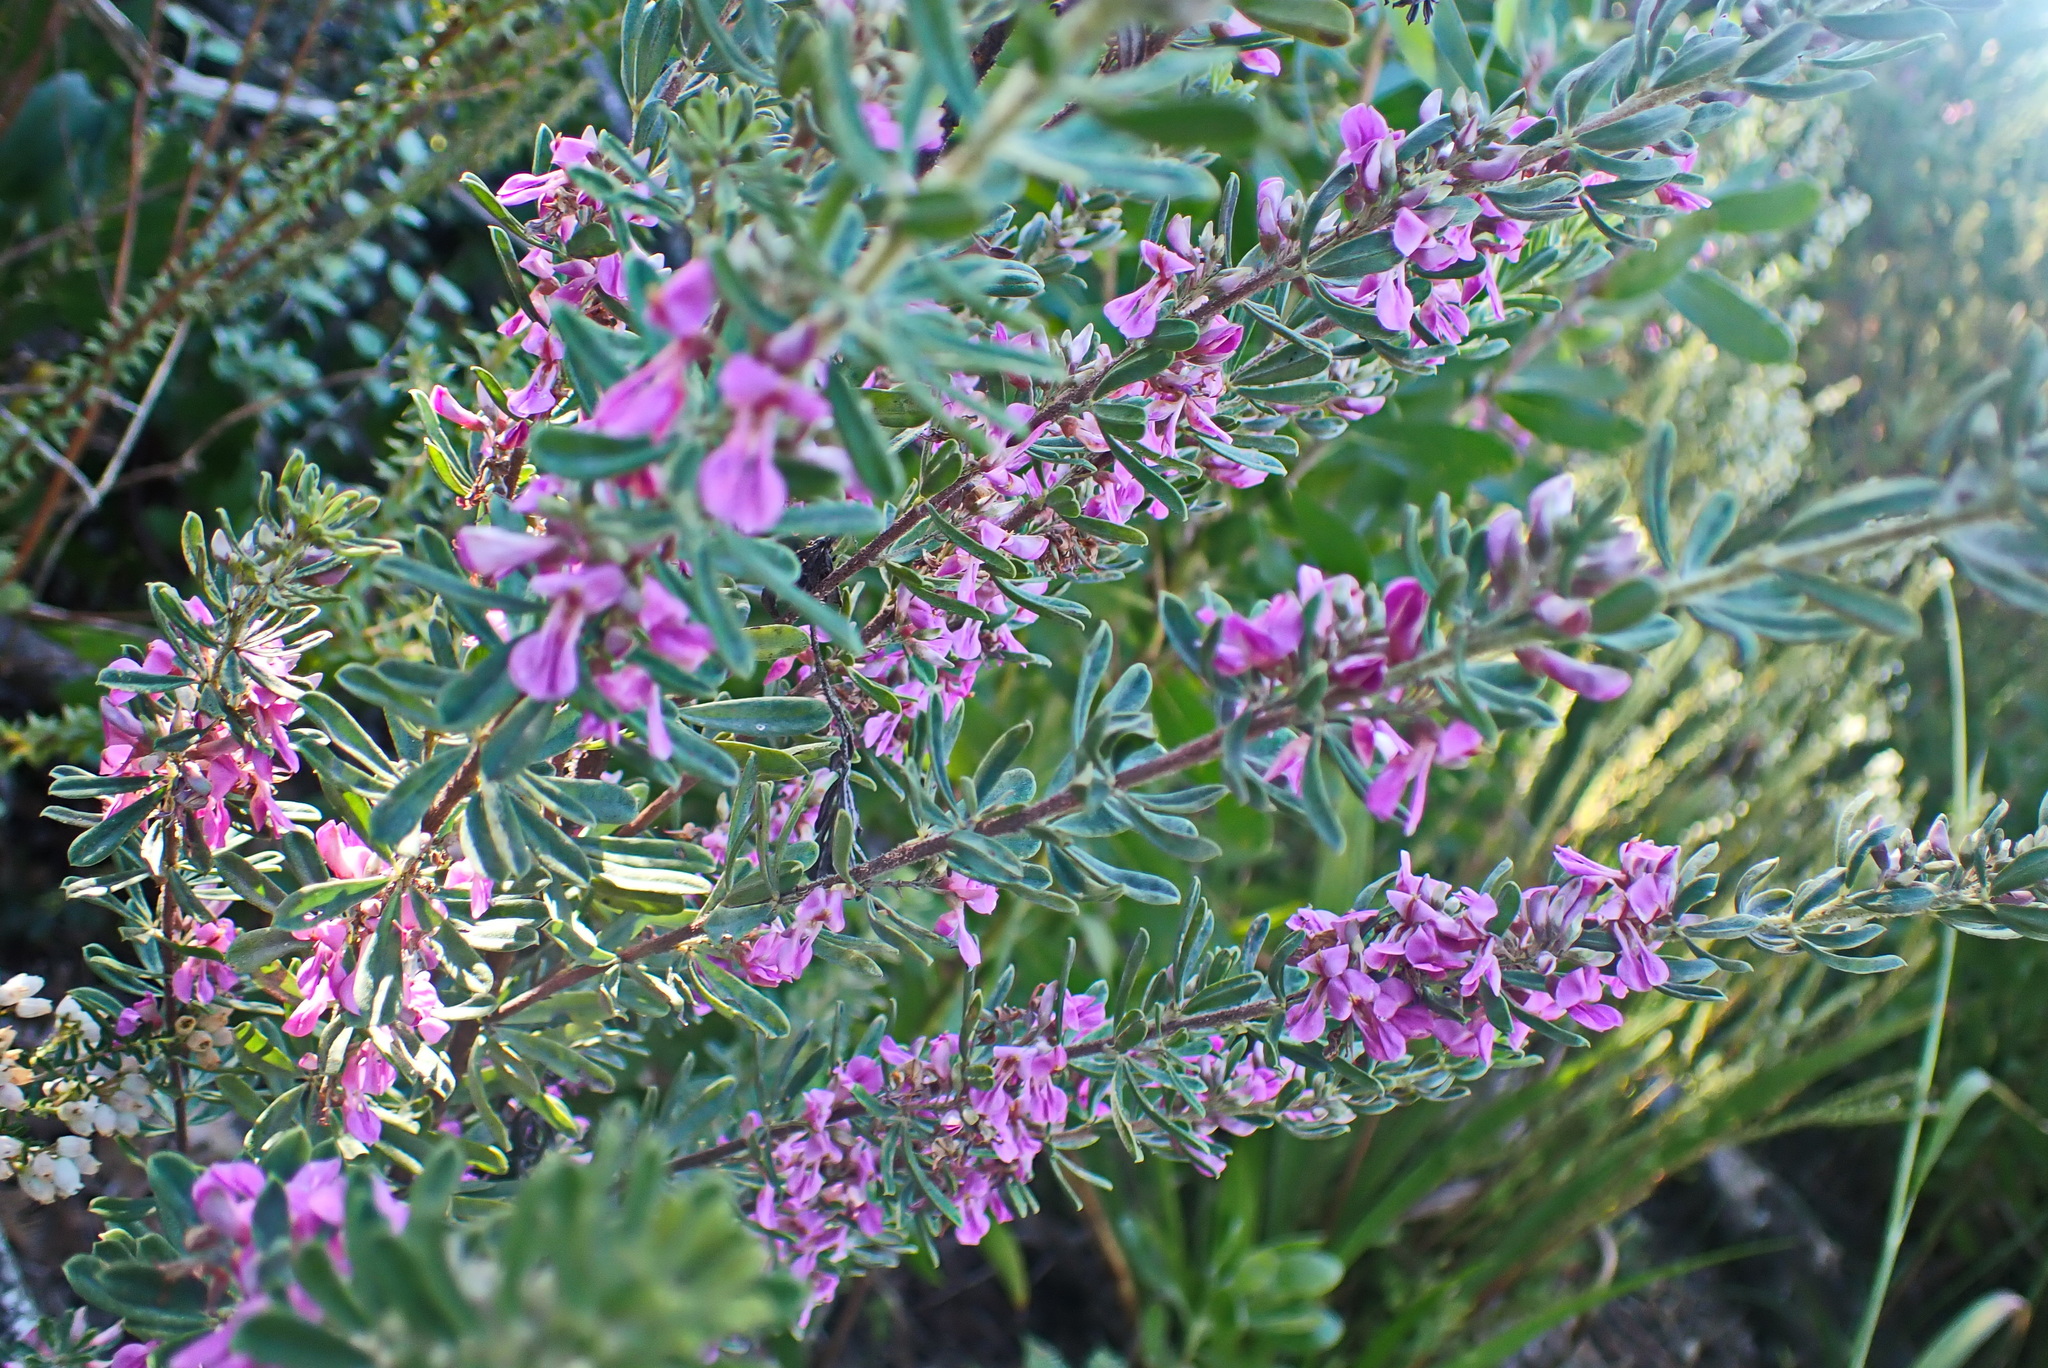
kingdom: Plantae
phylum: Tracheophyta
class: Magnoliopsida
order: Fabales
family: Fabaceae
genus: Indigofera
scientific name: Indigofera flabellata
